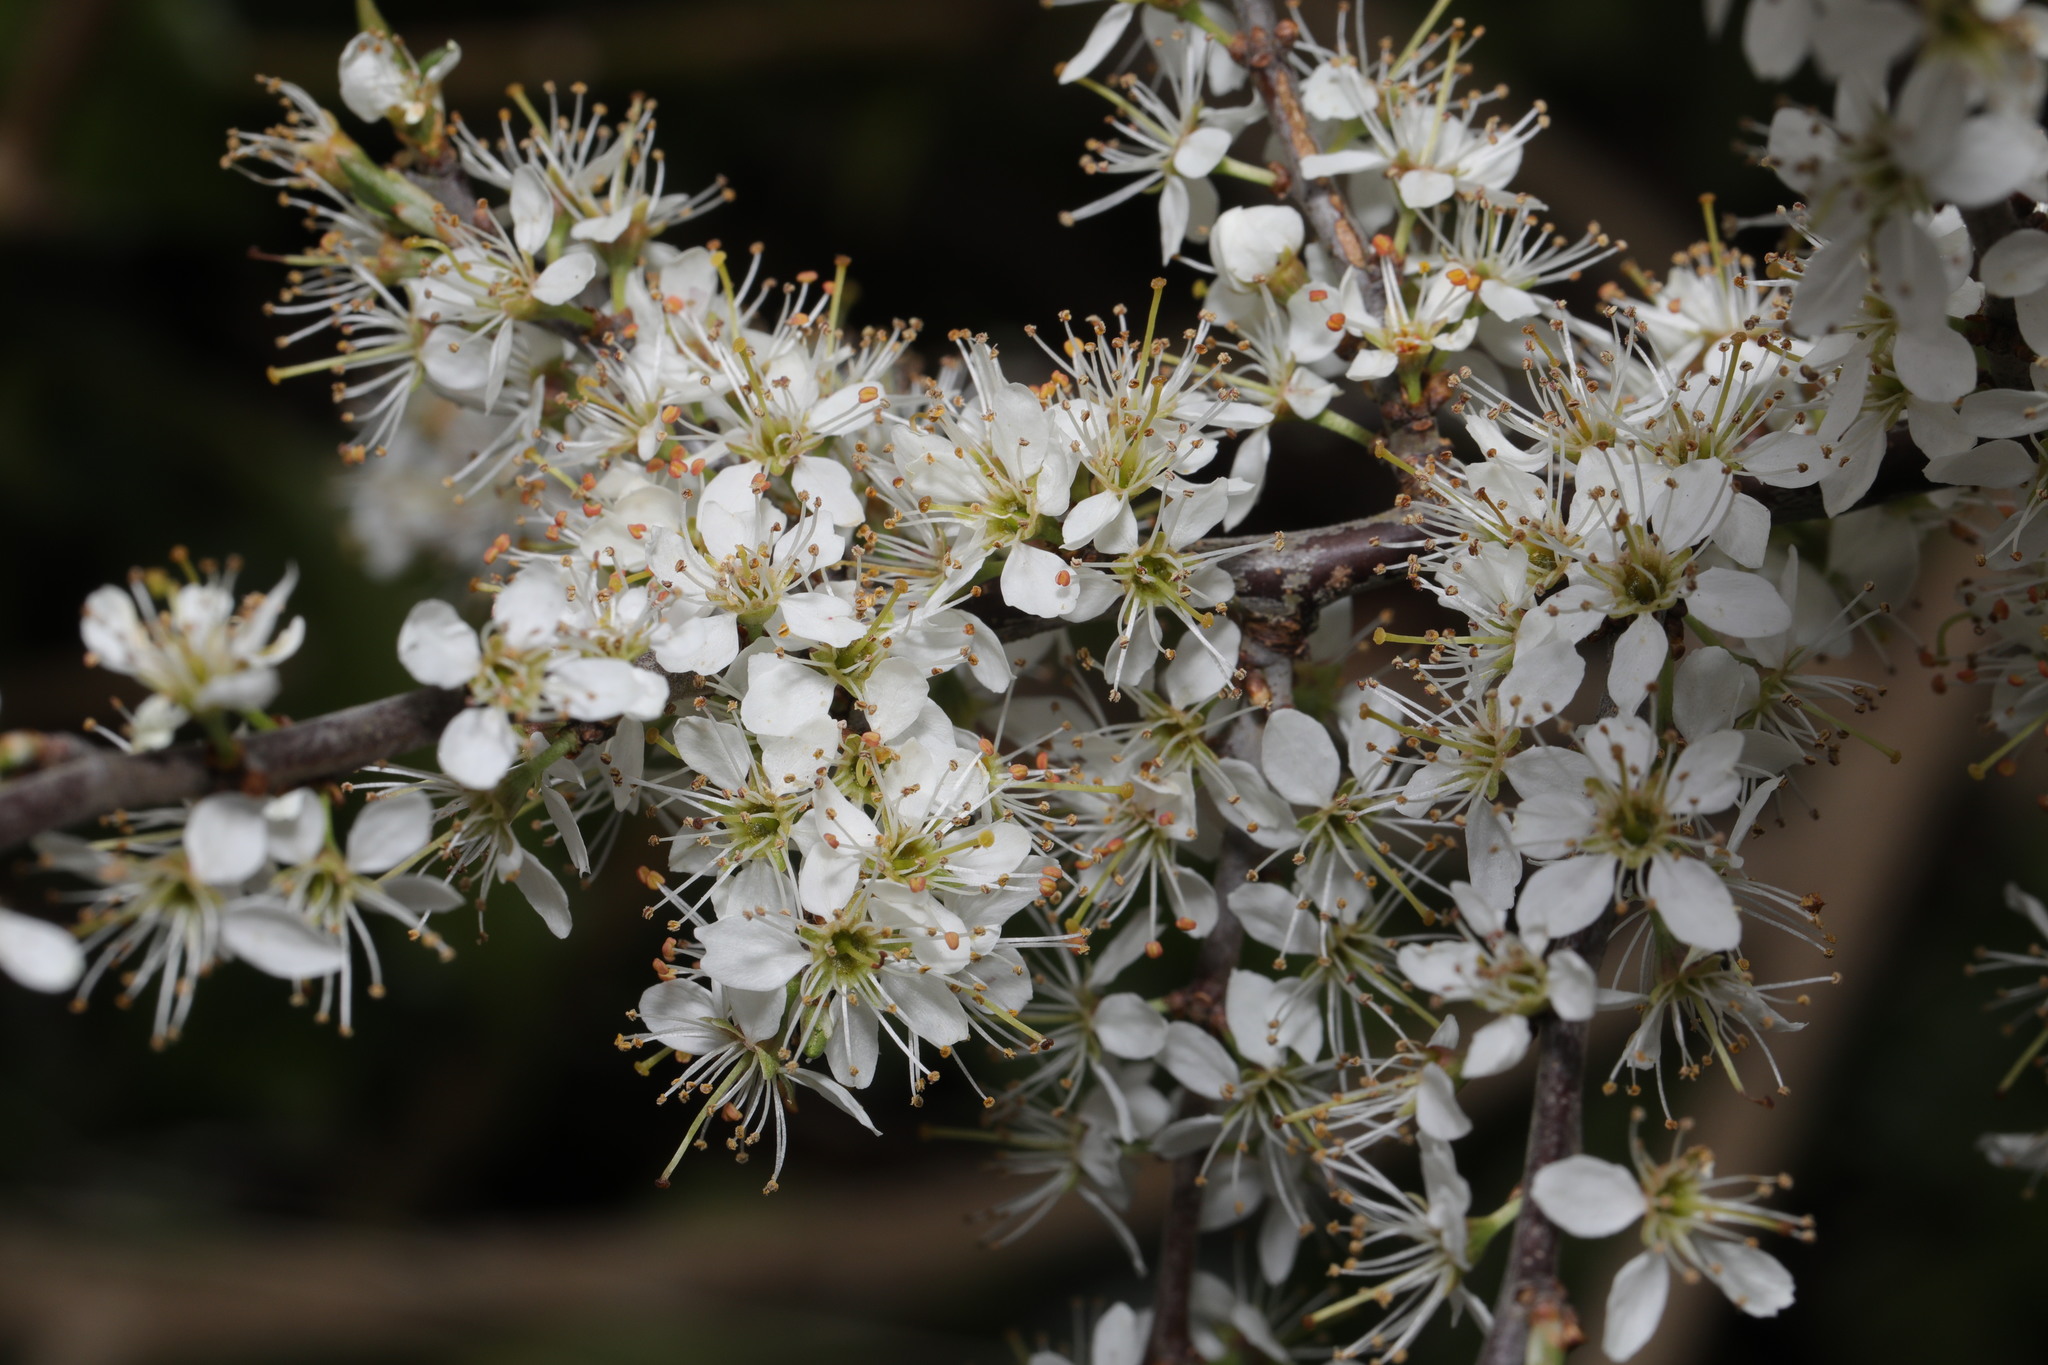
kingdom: Plantae
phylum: Tracheophyta
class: Magnoliopsida
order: Rosales
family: Rosaceae
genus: Prunus
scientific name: Prunus spinosa
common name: Blackthorn
